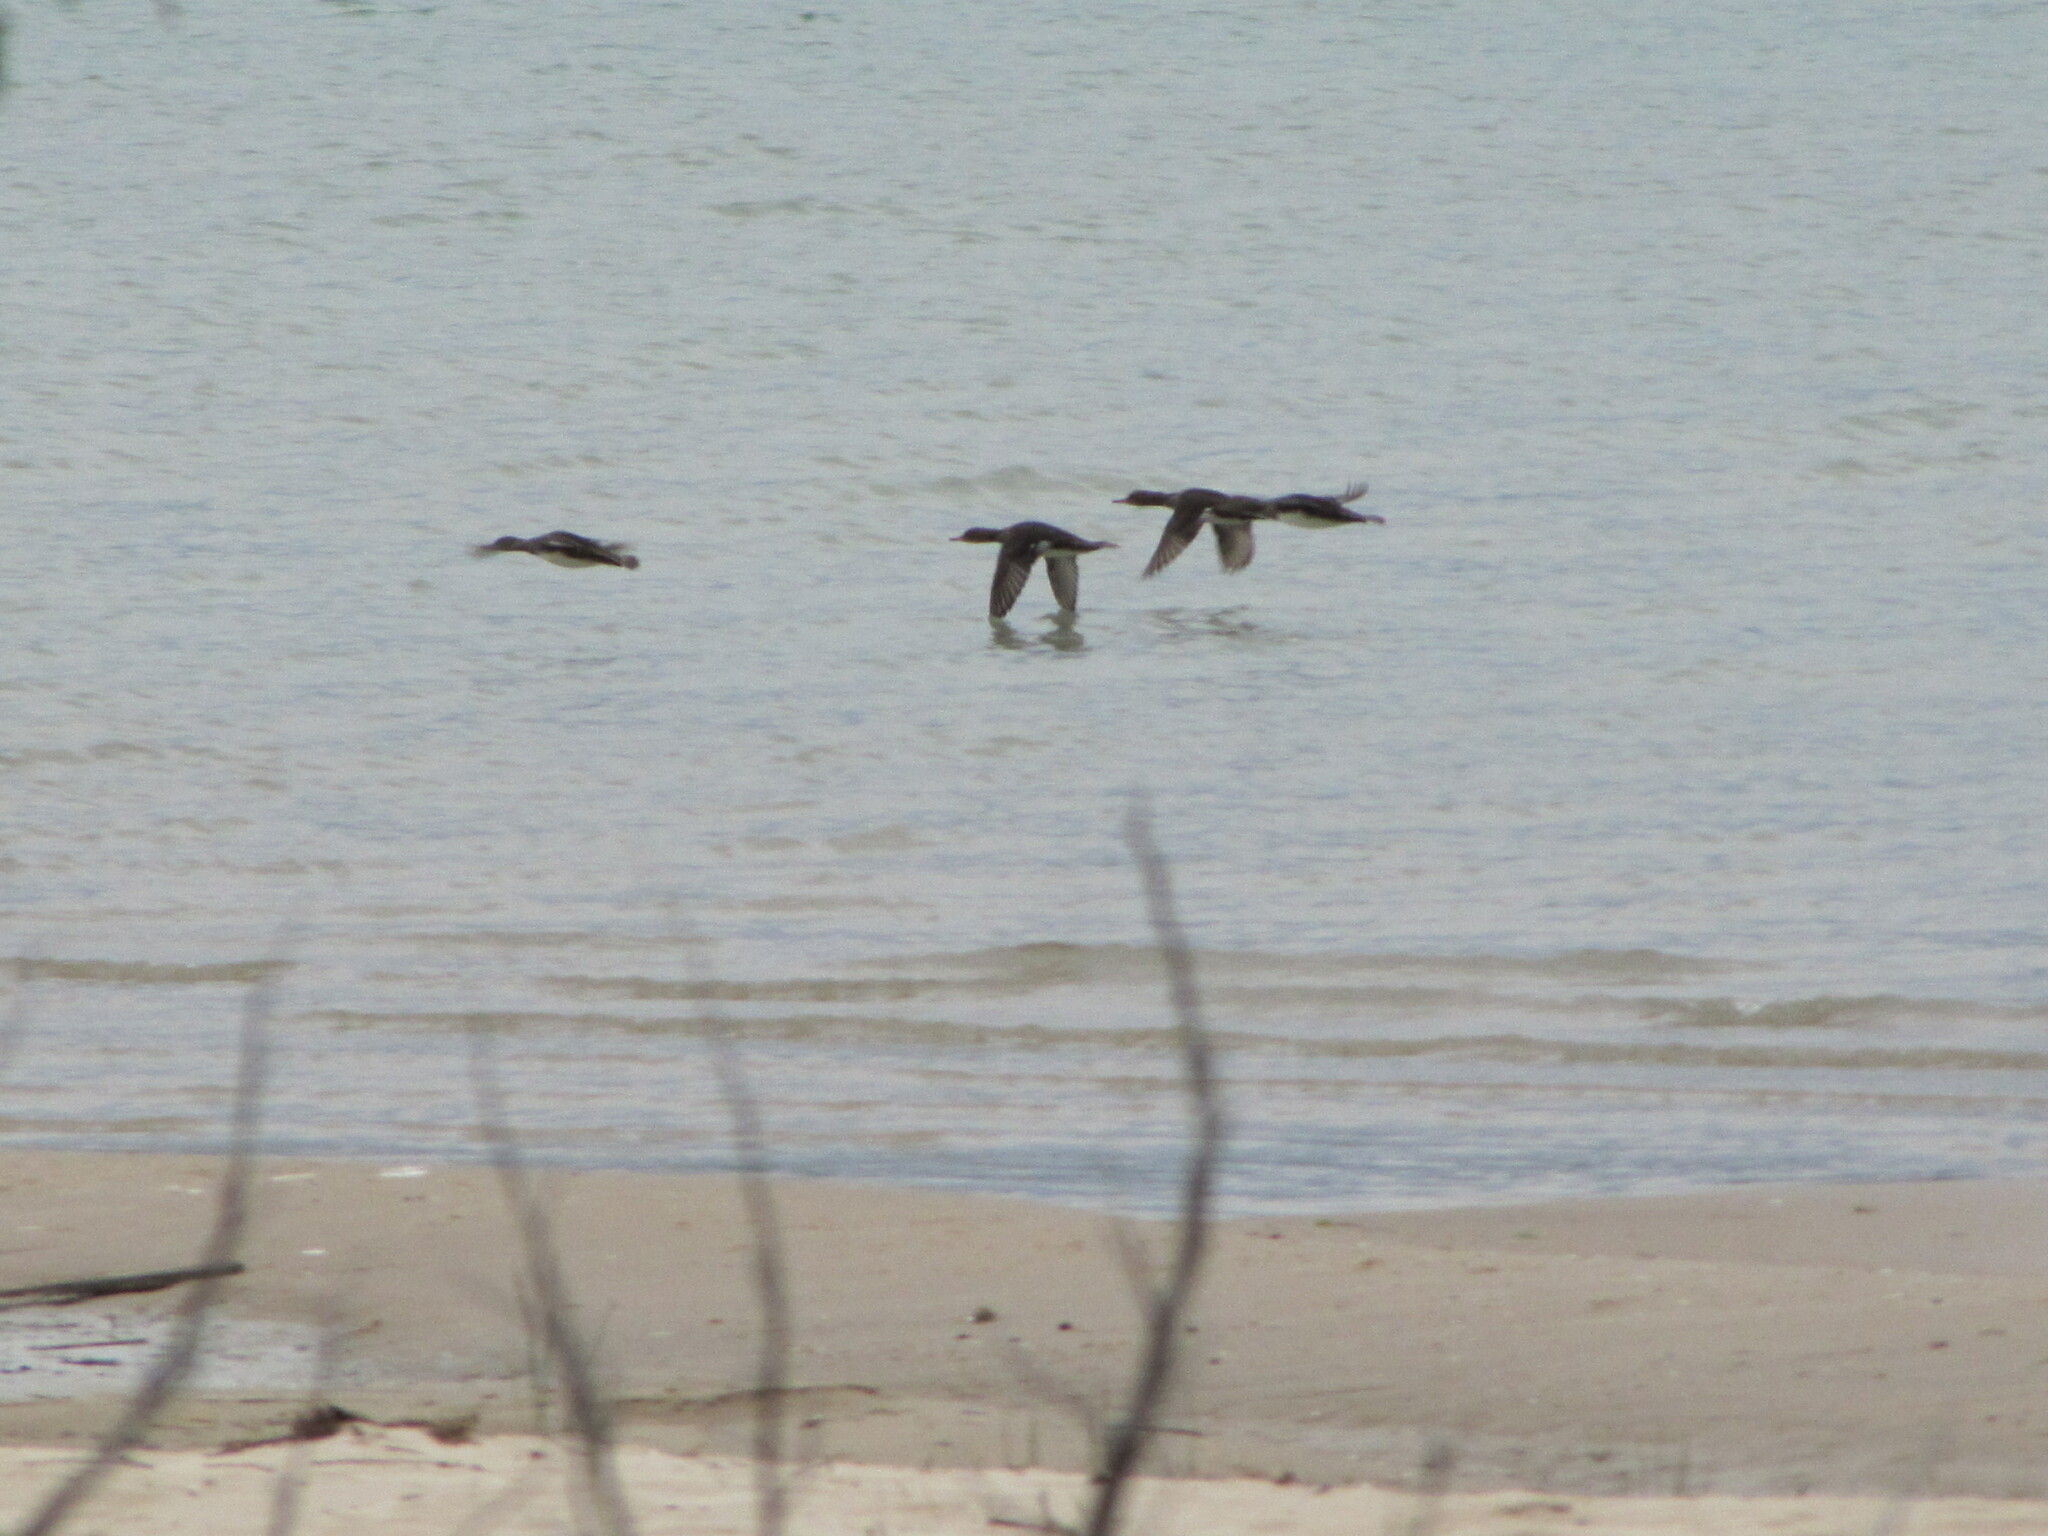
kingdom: Animalia
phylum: Chordata
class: Aves
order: Anseriformes
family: Anatidae
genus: Mergus
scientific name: Mergus merganser
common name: Common merganser
